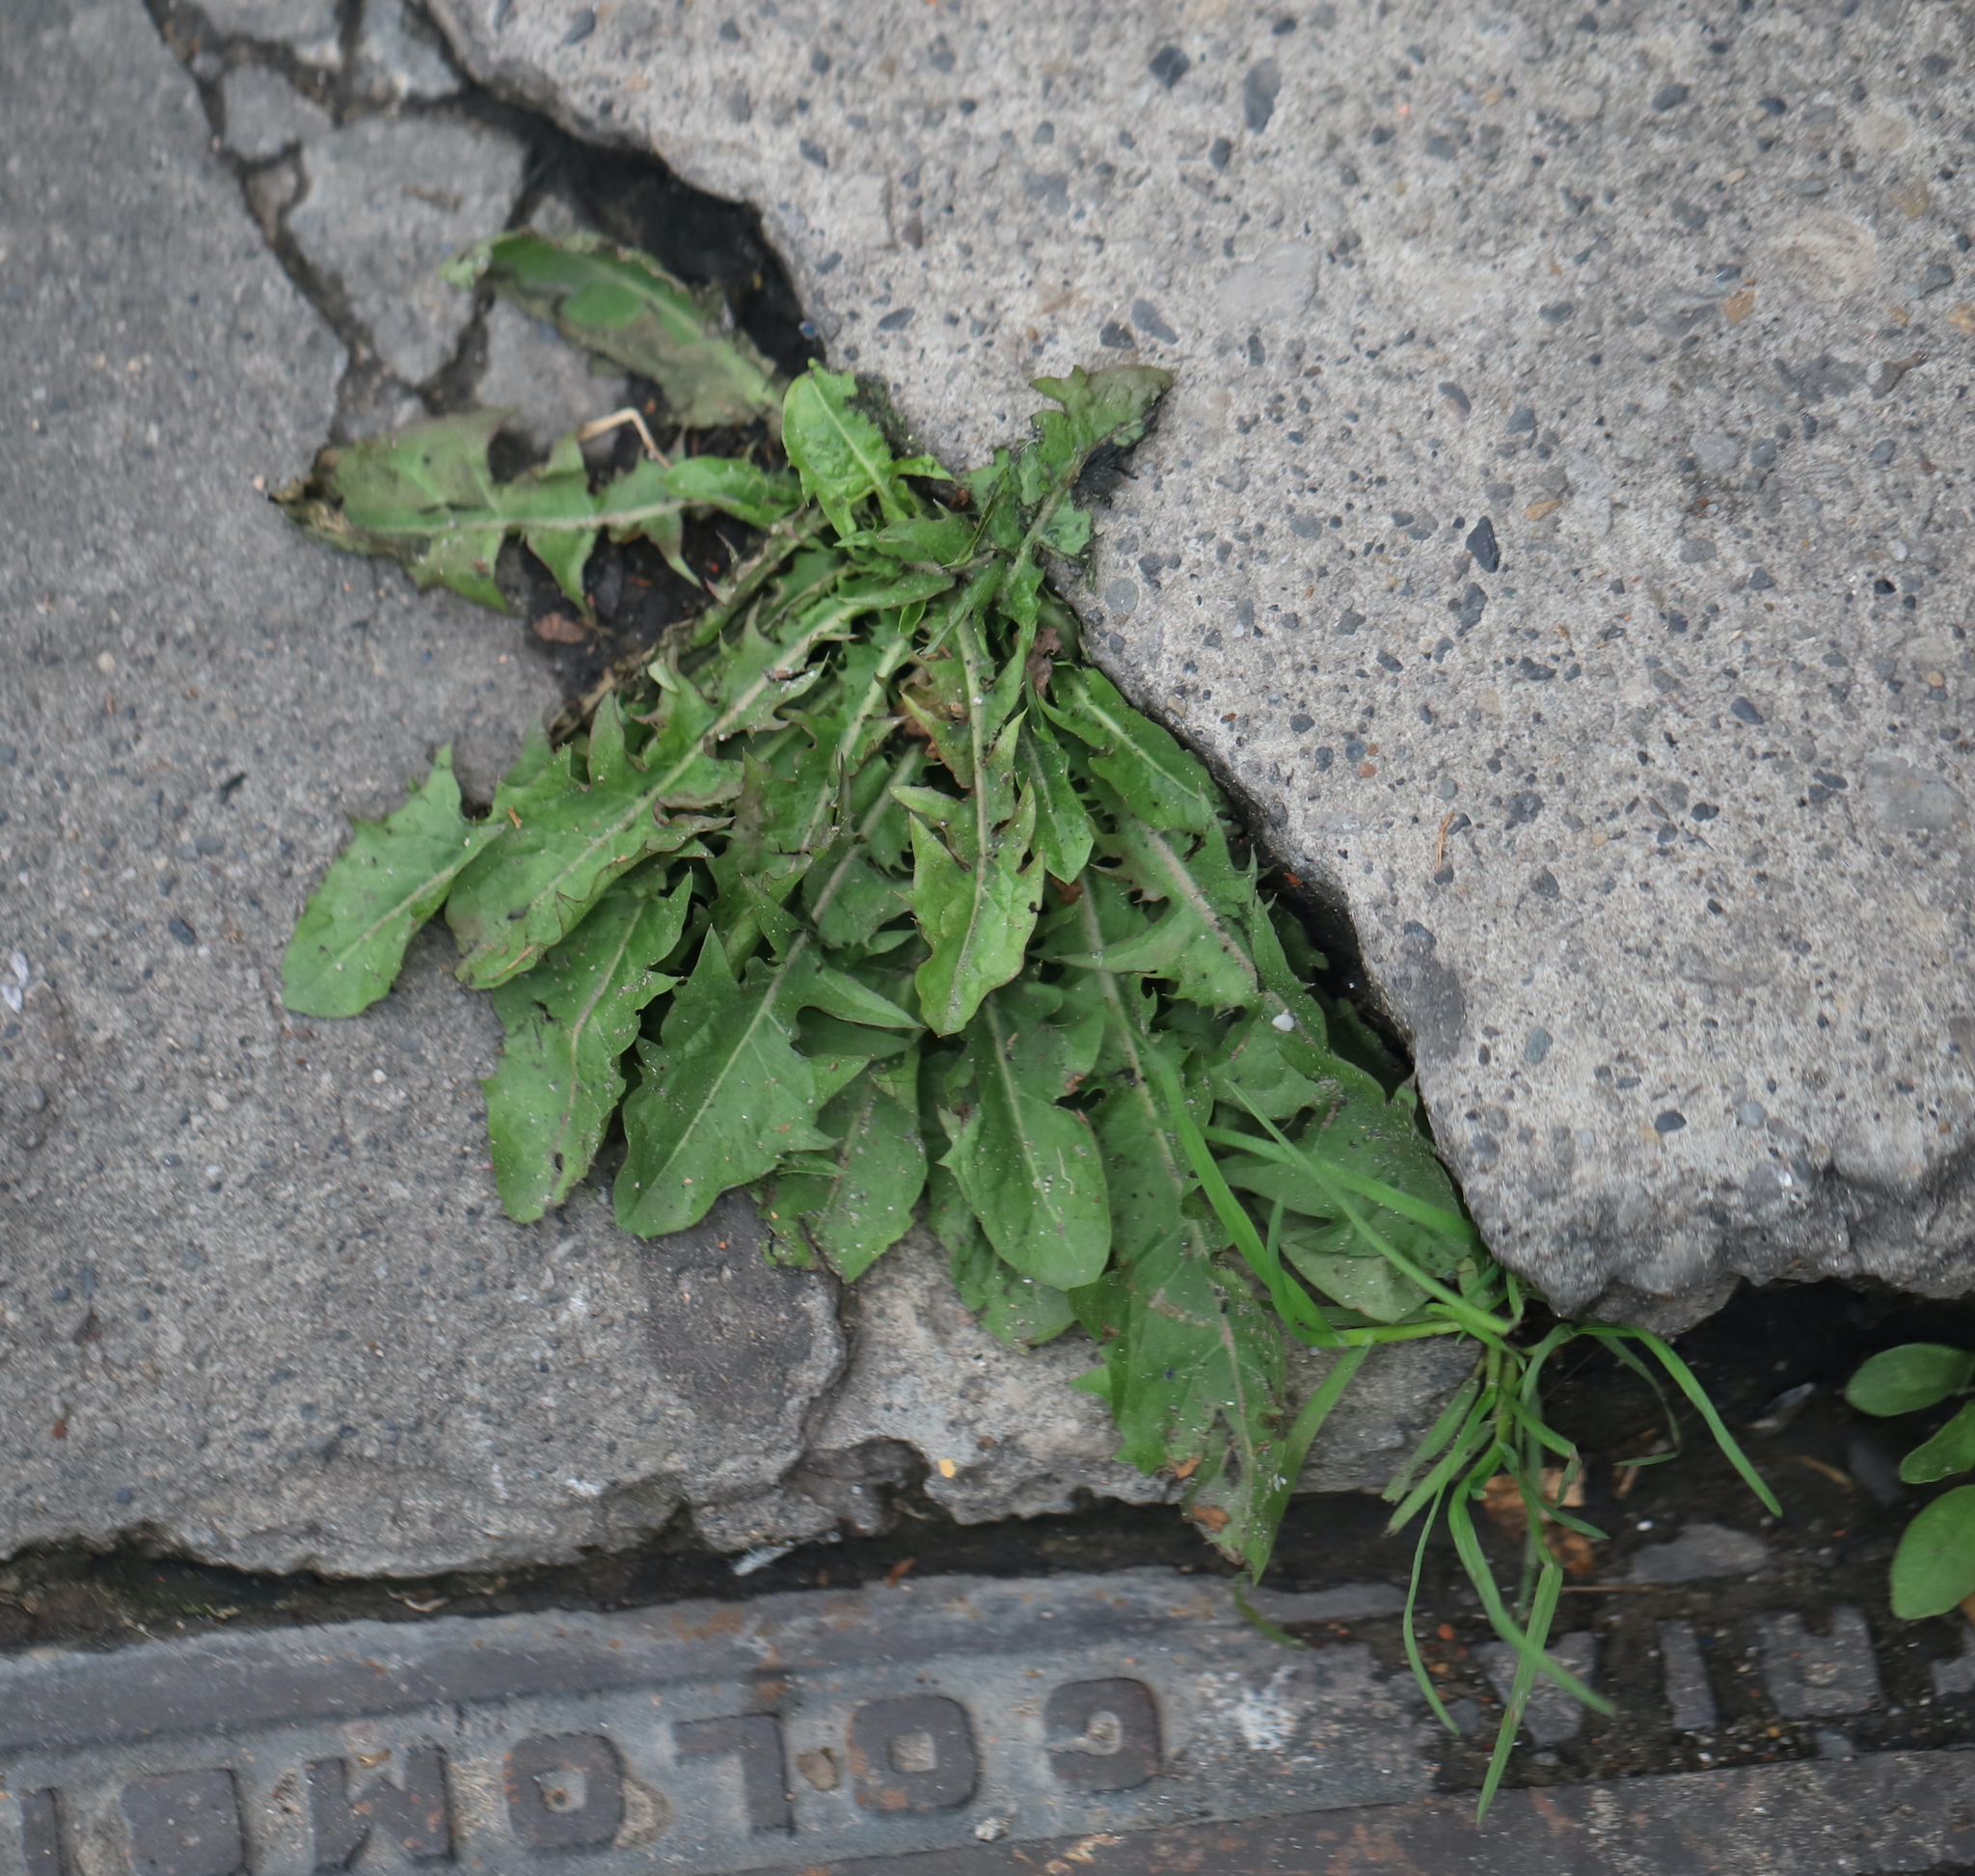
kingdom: Plantae
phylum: Tracheophyta
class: Magnoliopsida
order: Asterales
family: Asteraceae
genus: Taraxacum
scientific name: Taraxacum officinale
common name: Common dandelion
